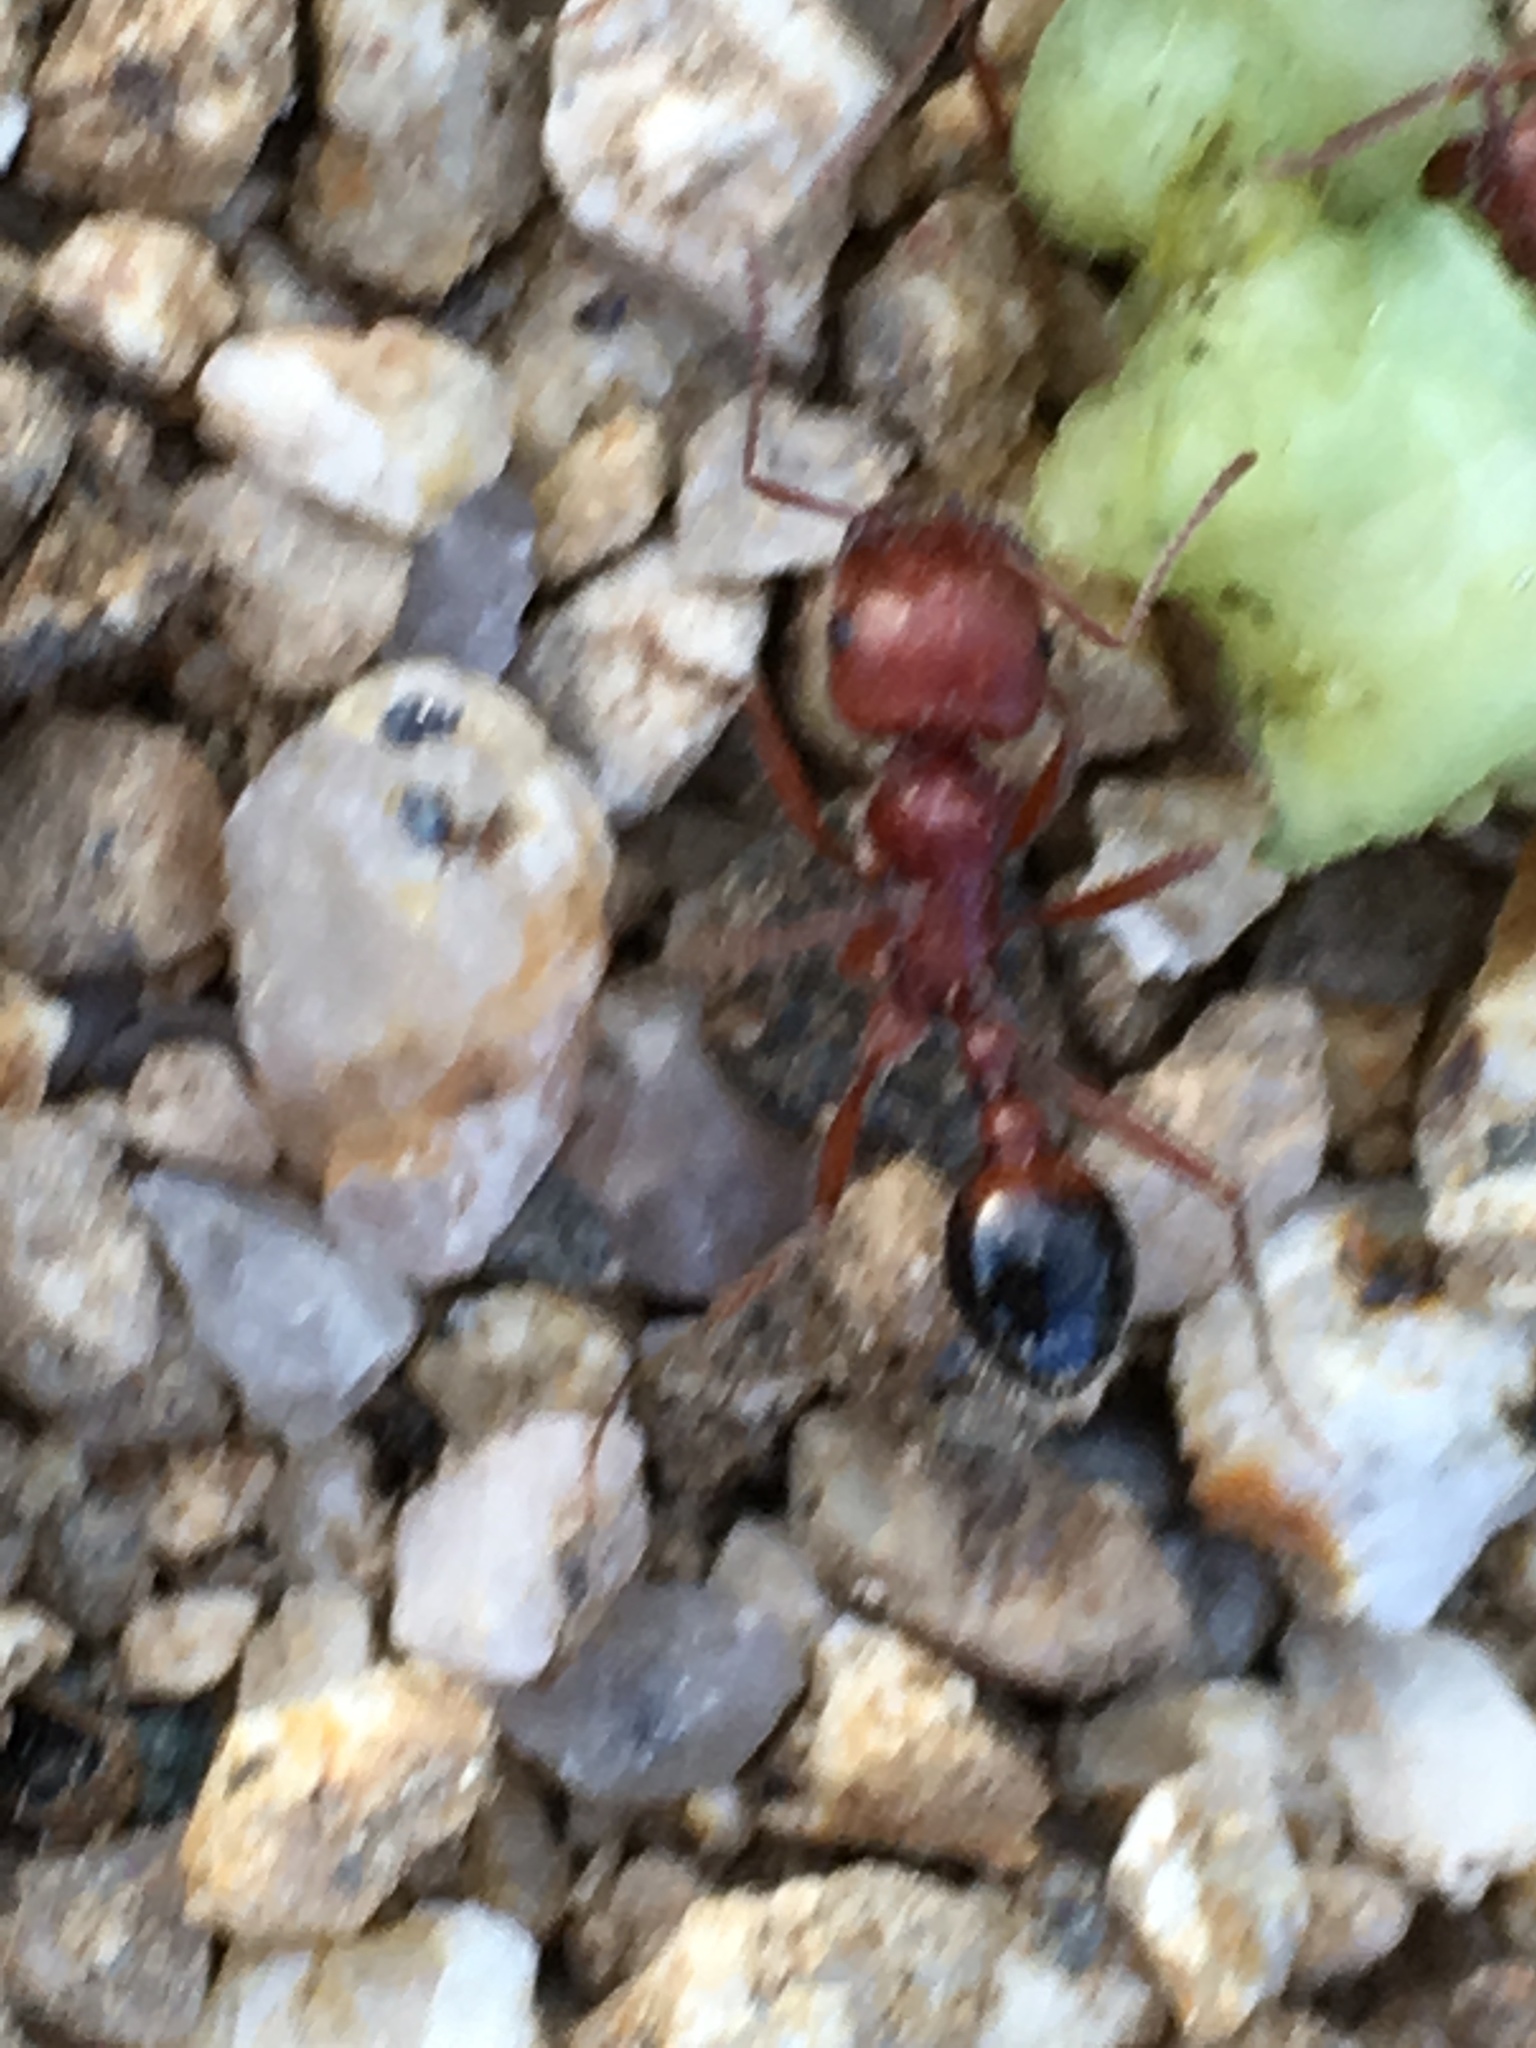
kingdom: Animalia
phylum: Arthropoda
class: Insecta
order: Hymenoptera
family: Formicidae
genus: Pogonomyrmex
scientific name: Pogonomyrmex californicus
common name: California harvester ant
